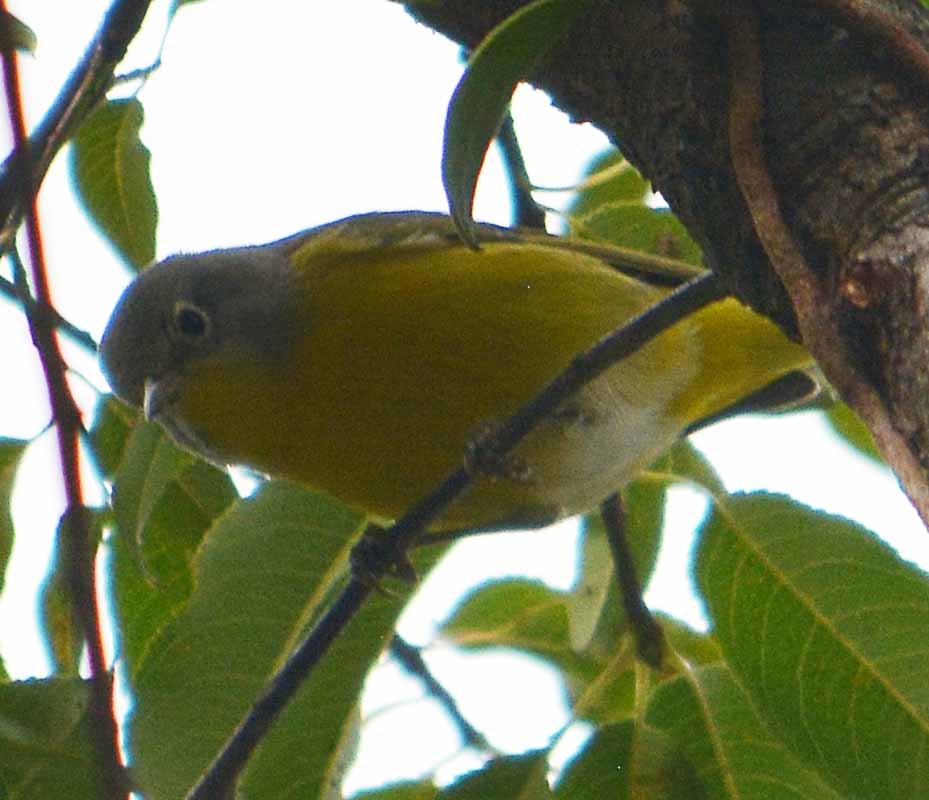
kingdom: Animalia
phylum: Chordata
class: Aves
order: Passeriformes
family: Parulidae
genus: Leiothlypis
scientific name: Leiothlypis ruficapilla
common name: Nashville warbler
